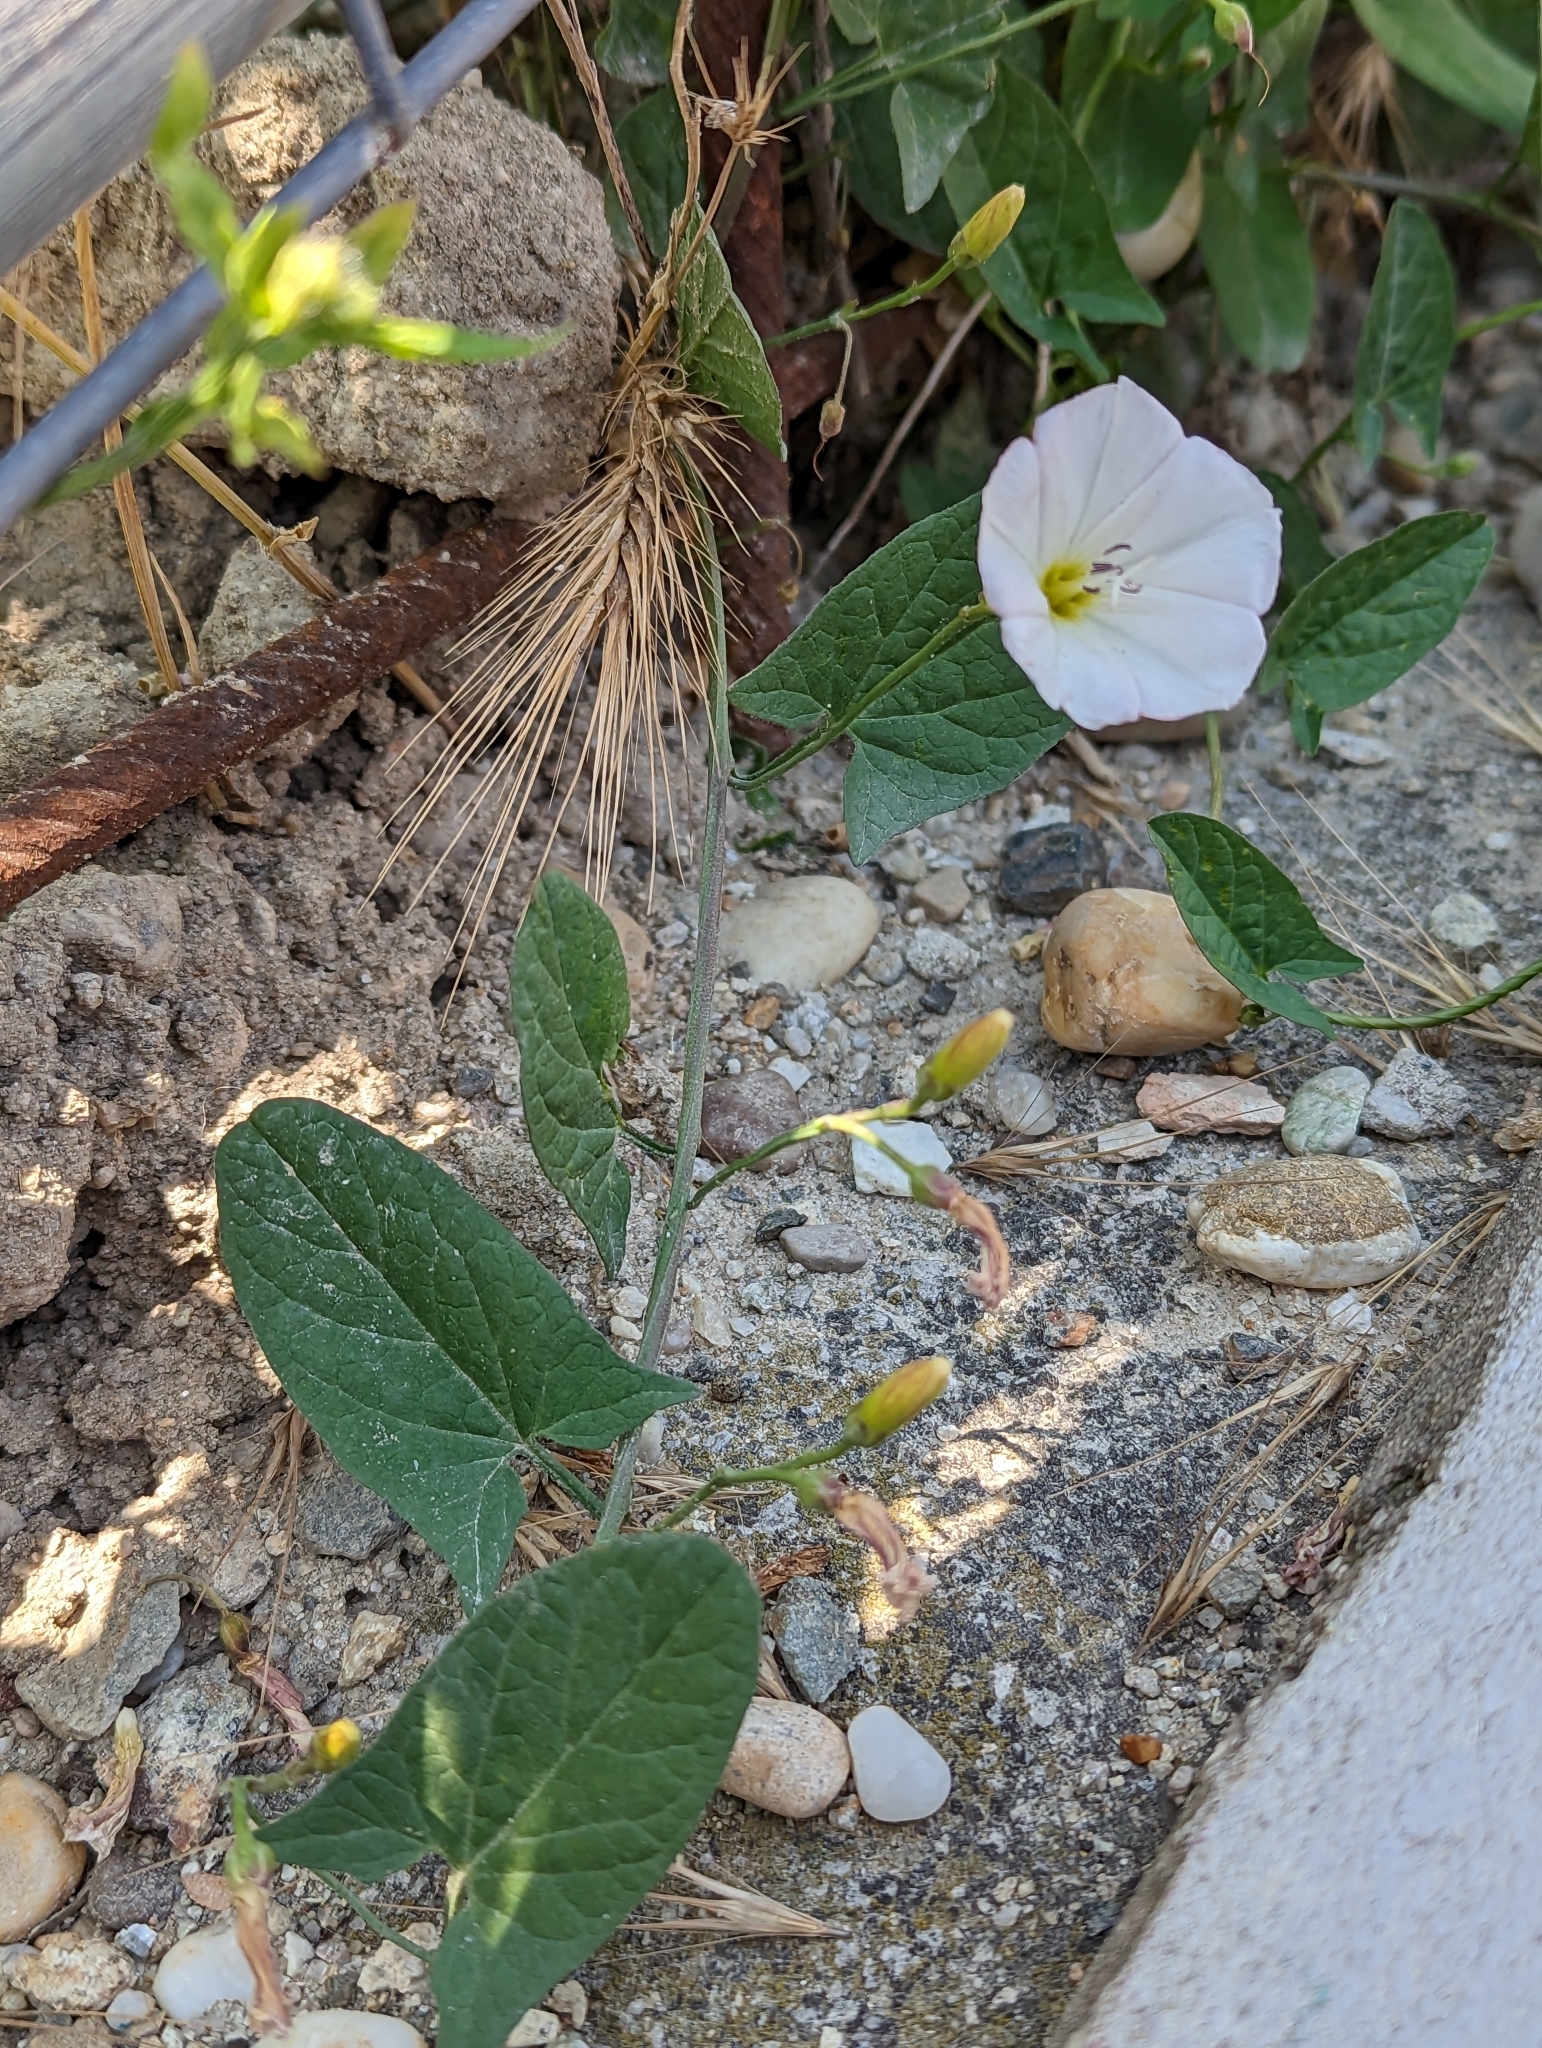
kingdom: Plantae
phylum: Tracheophyta
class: Magnoliopsida
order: Solanales
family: Convolvulaceae
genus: Convolvulus
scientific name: Convolvulus arvensis
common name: Field bindweed
